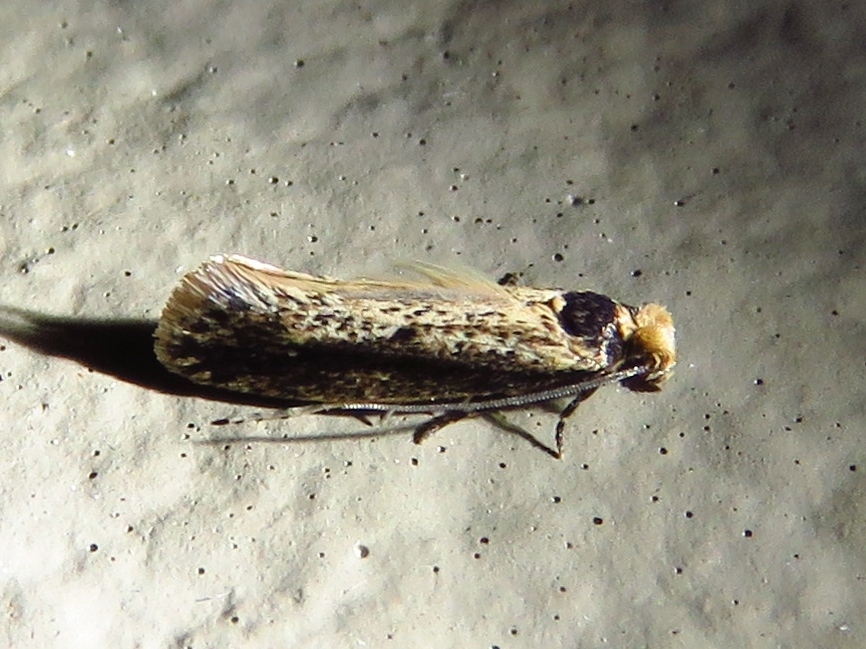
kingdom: Animalia
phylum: Arthropoda
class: Insecta
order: Lepidoptera
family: Tineidae
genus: Tinea
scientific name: Tinea apicimaculella
